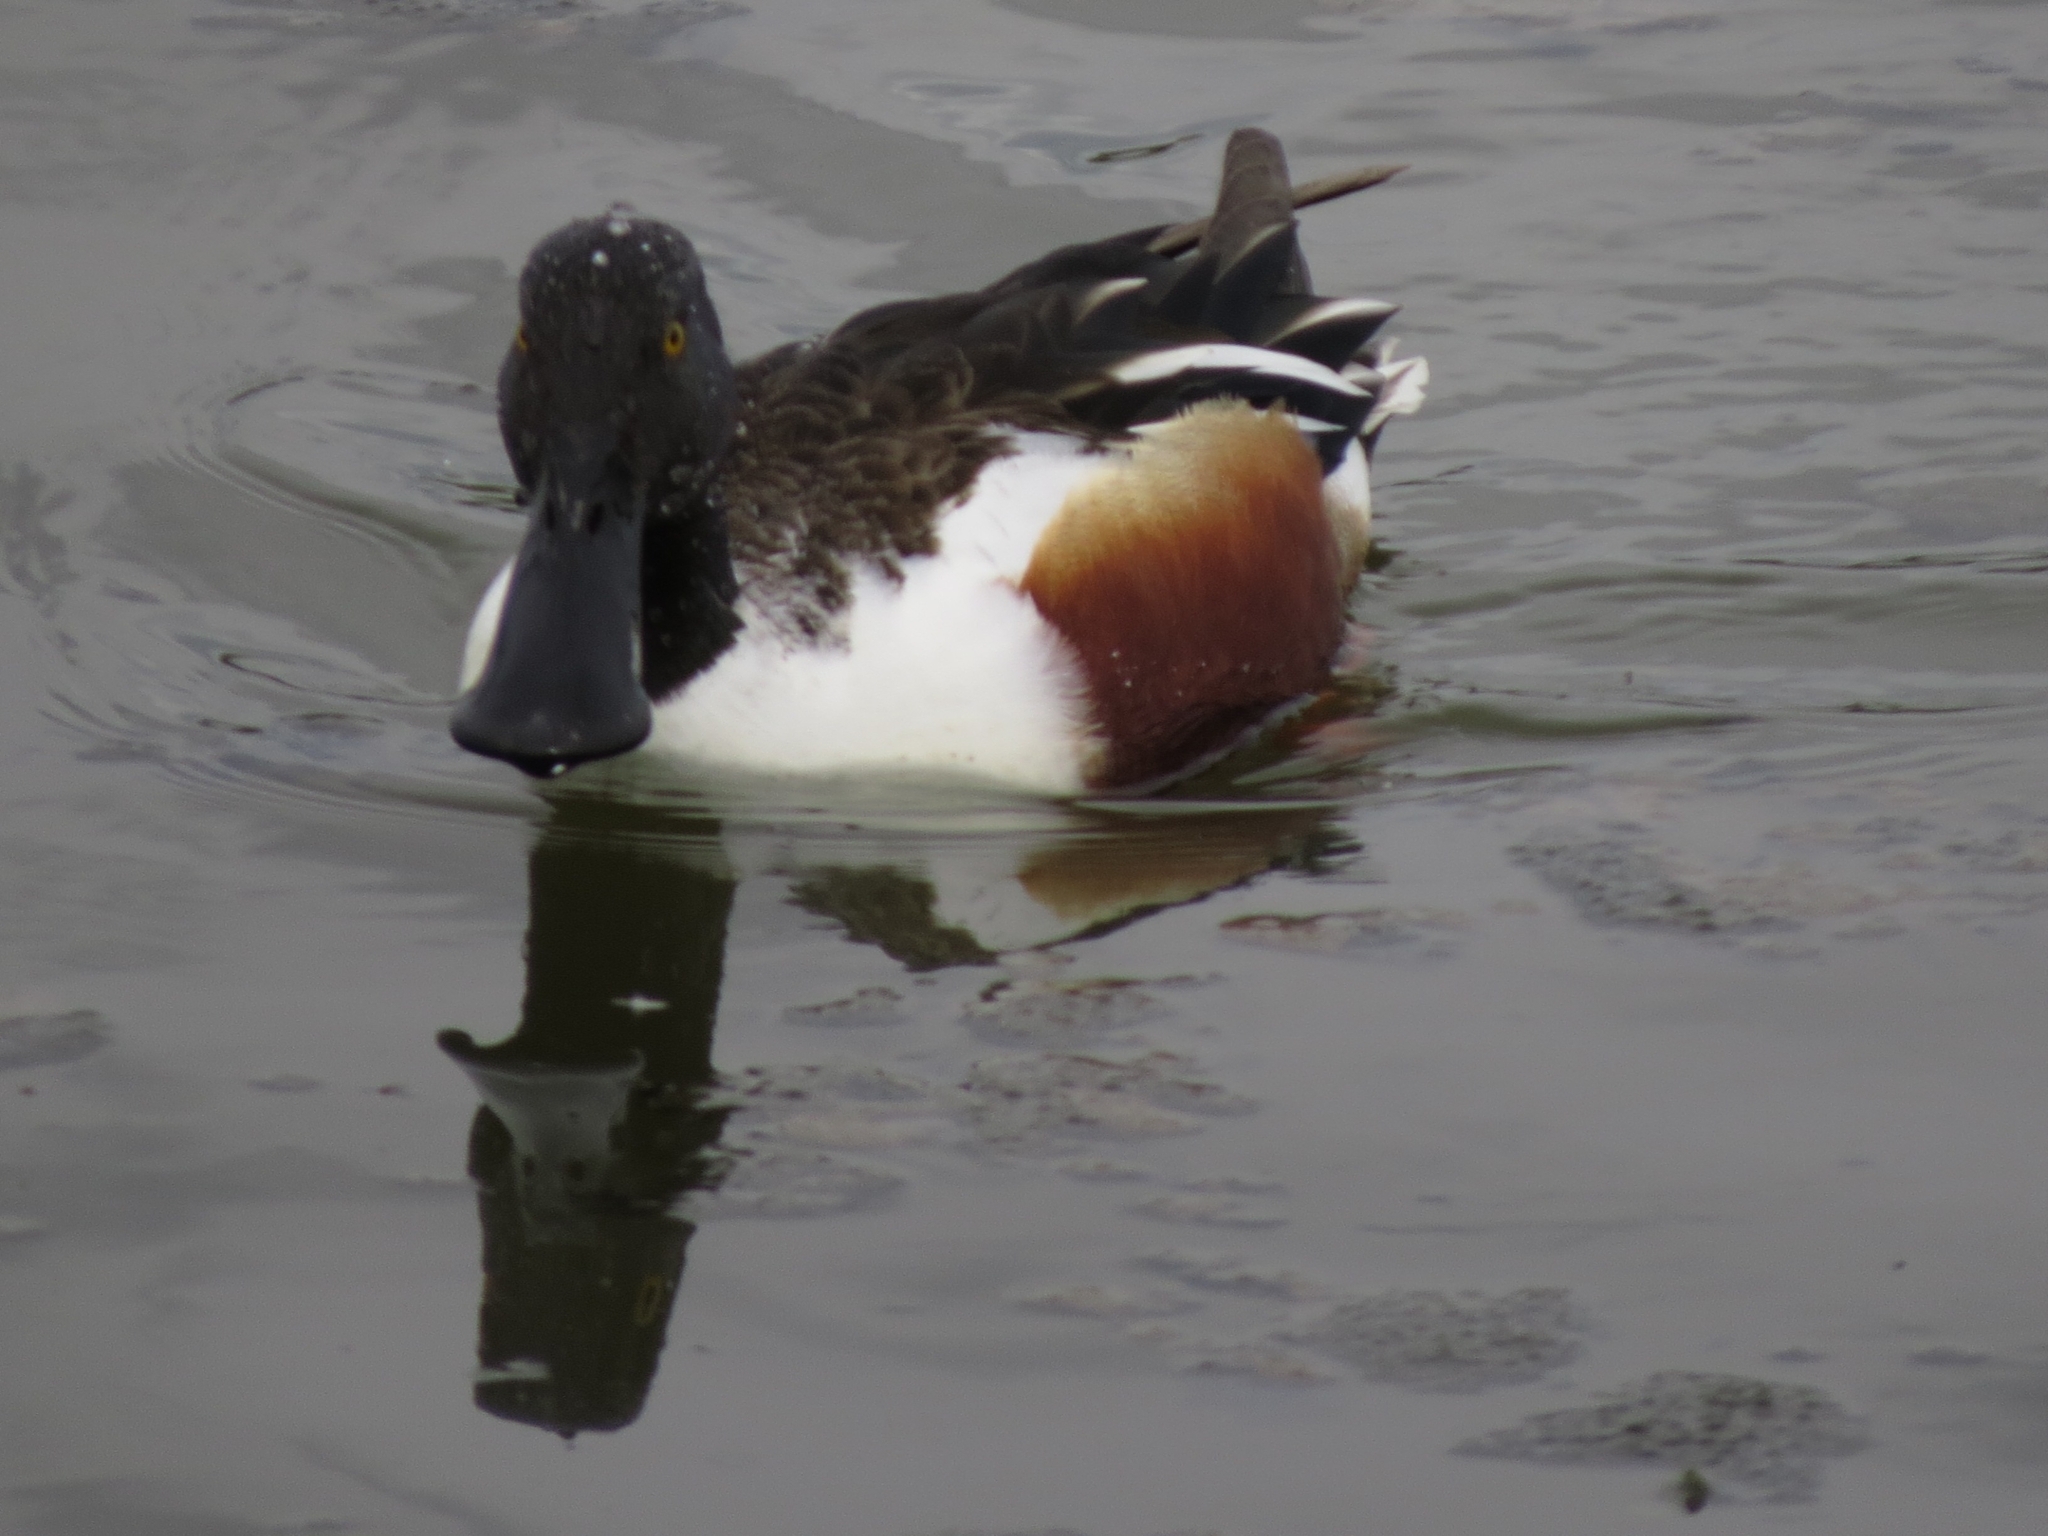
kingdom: Animalia
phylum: Chordata
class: Aves
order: Anseriformes
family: Anatidae
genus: Spatula
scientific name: Spatula clypeata
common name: Northern shoveler
